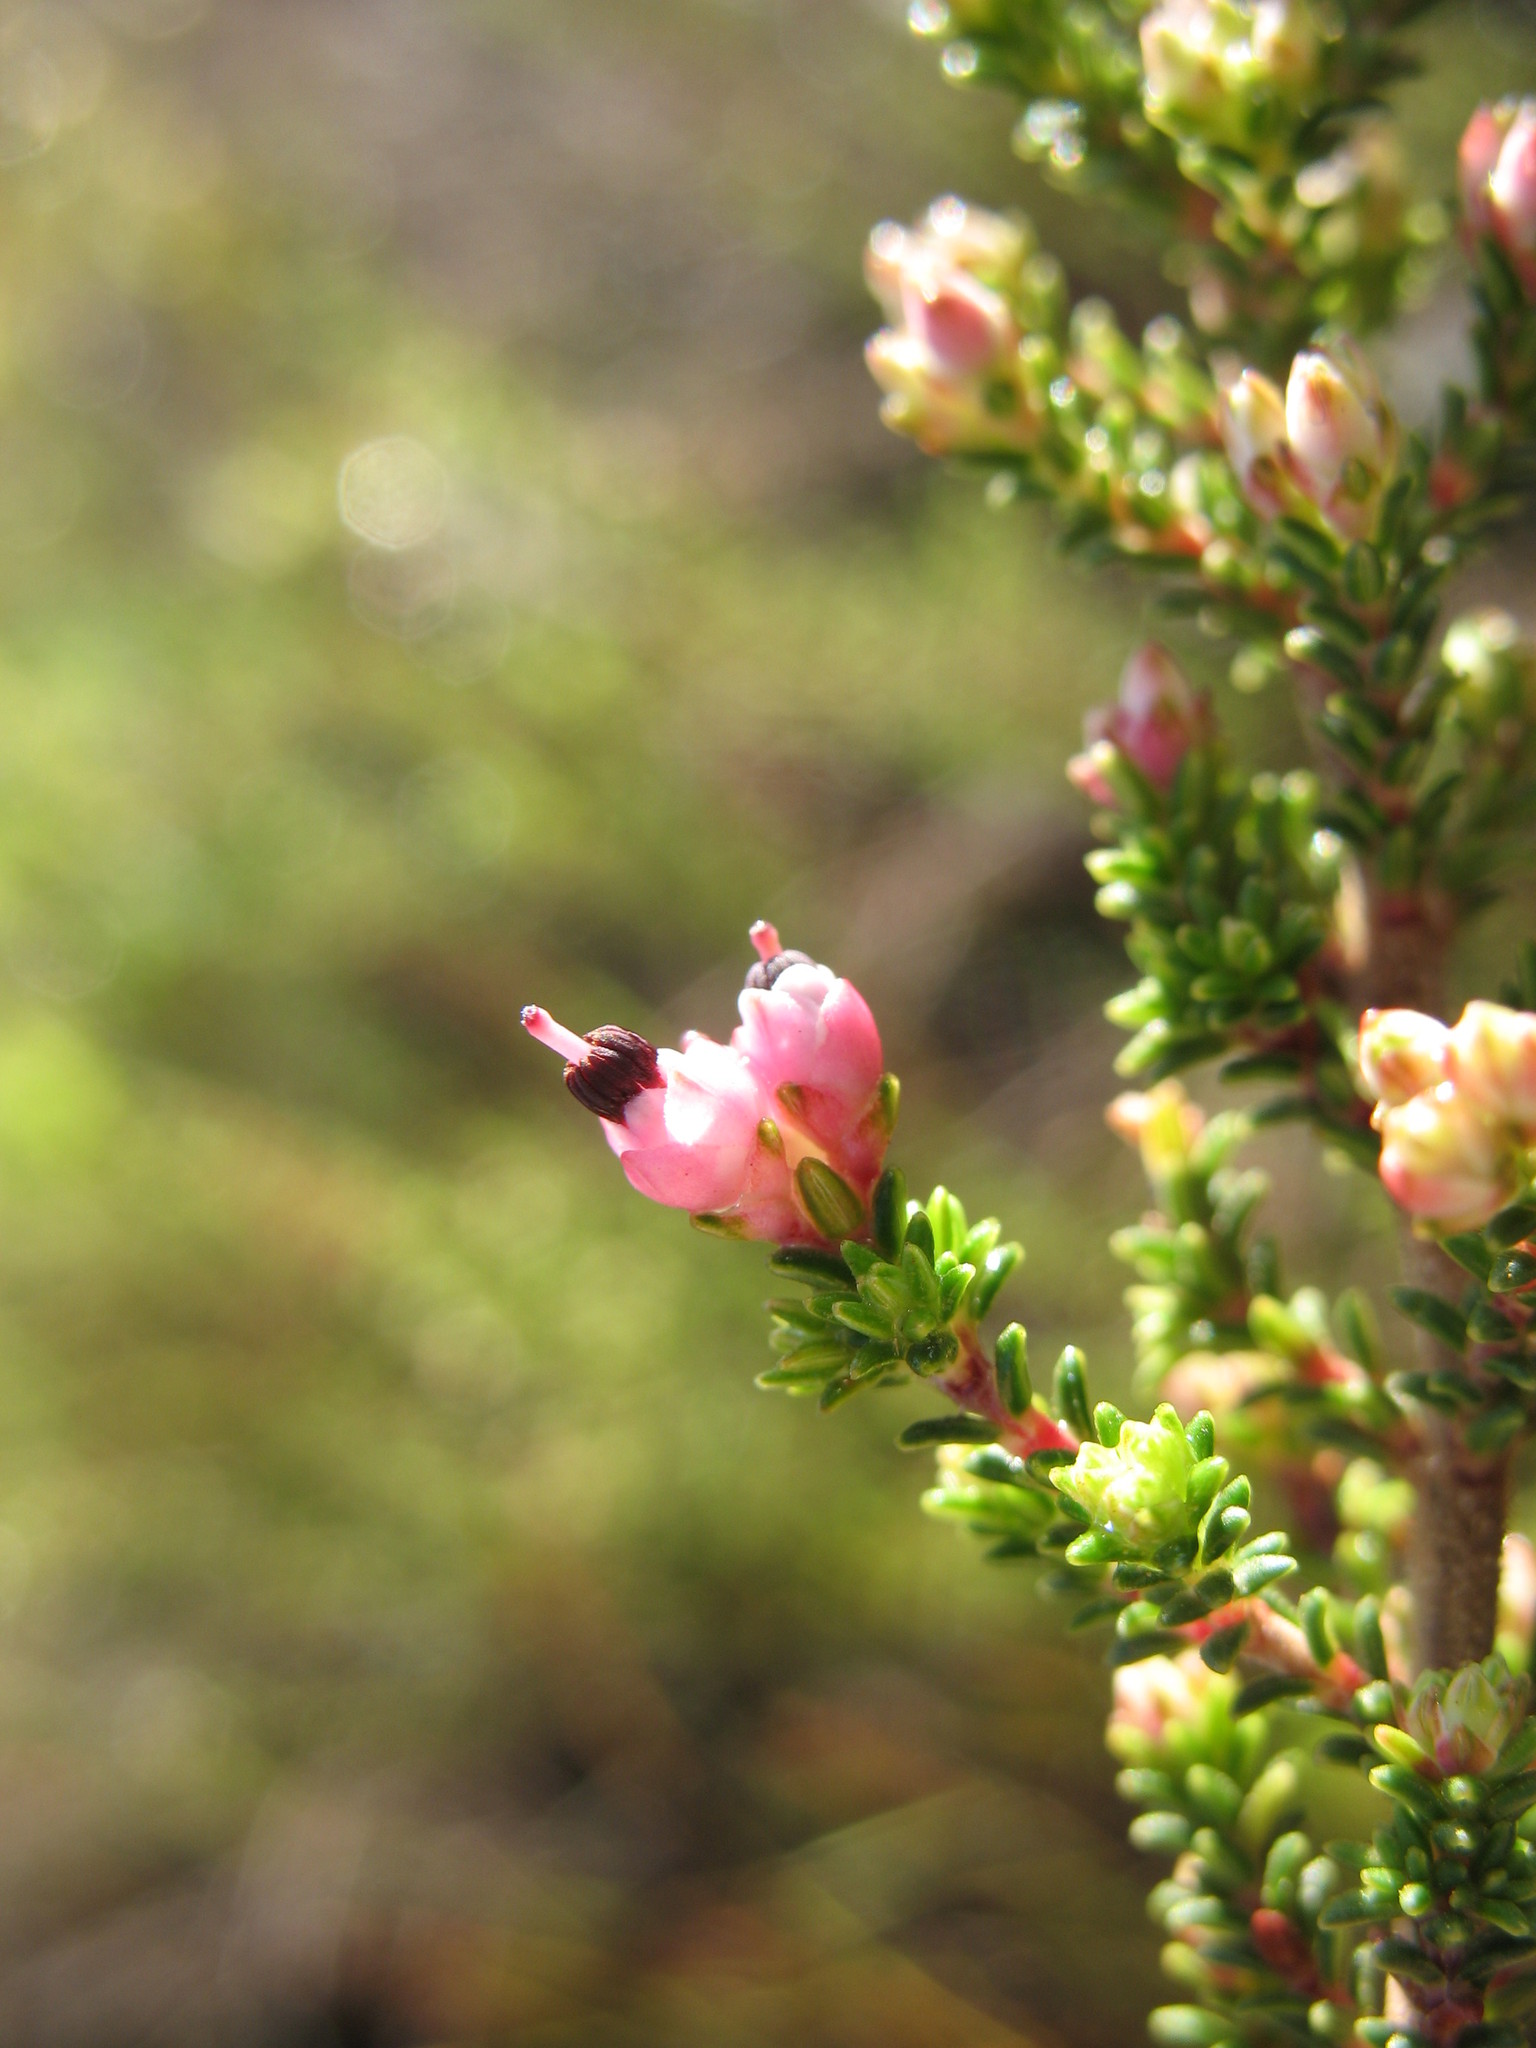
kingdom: Plantae
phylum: Tracheophyta
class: Magnoliopsida
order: Ericales
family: Ericaceae
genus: Erica
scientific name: Erica placentiflora
